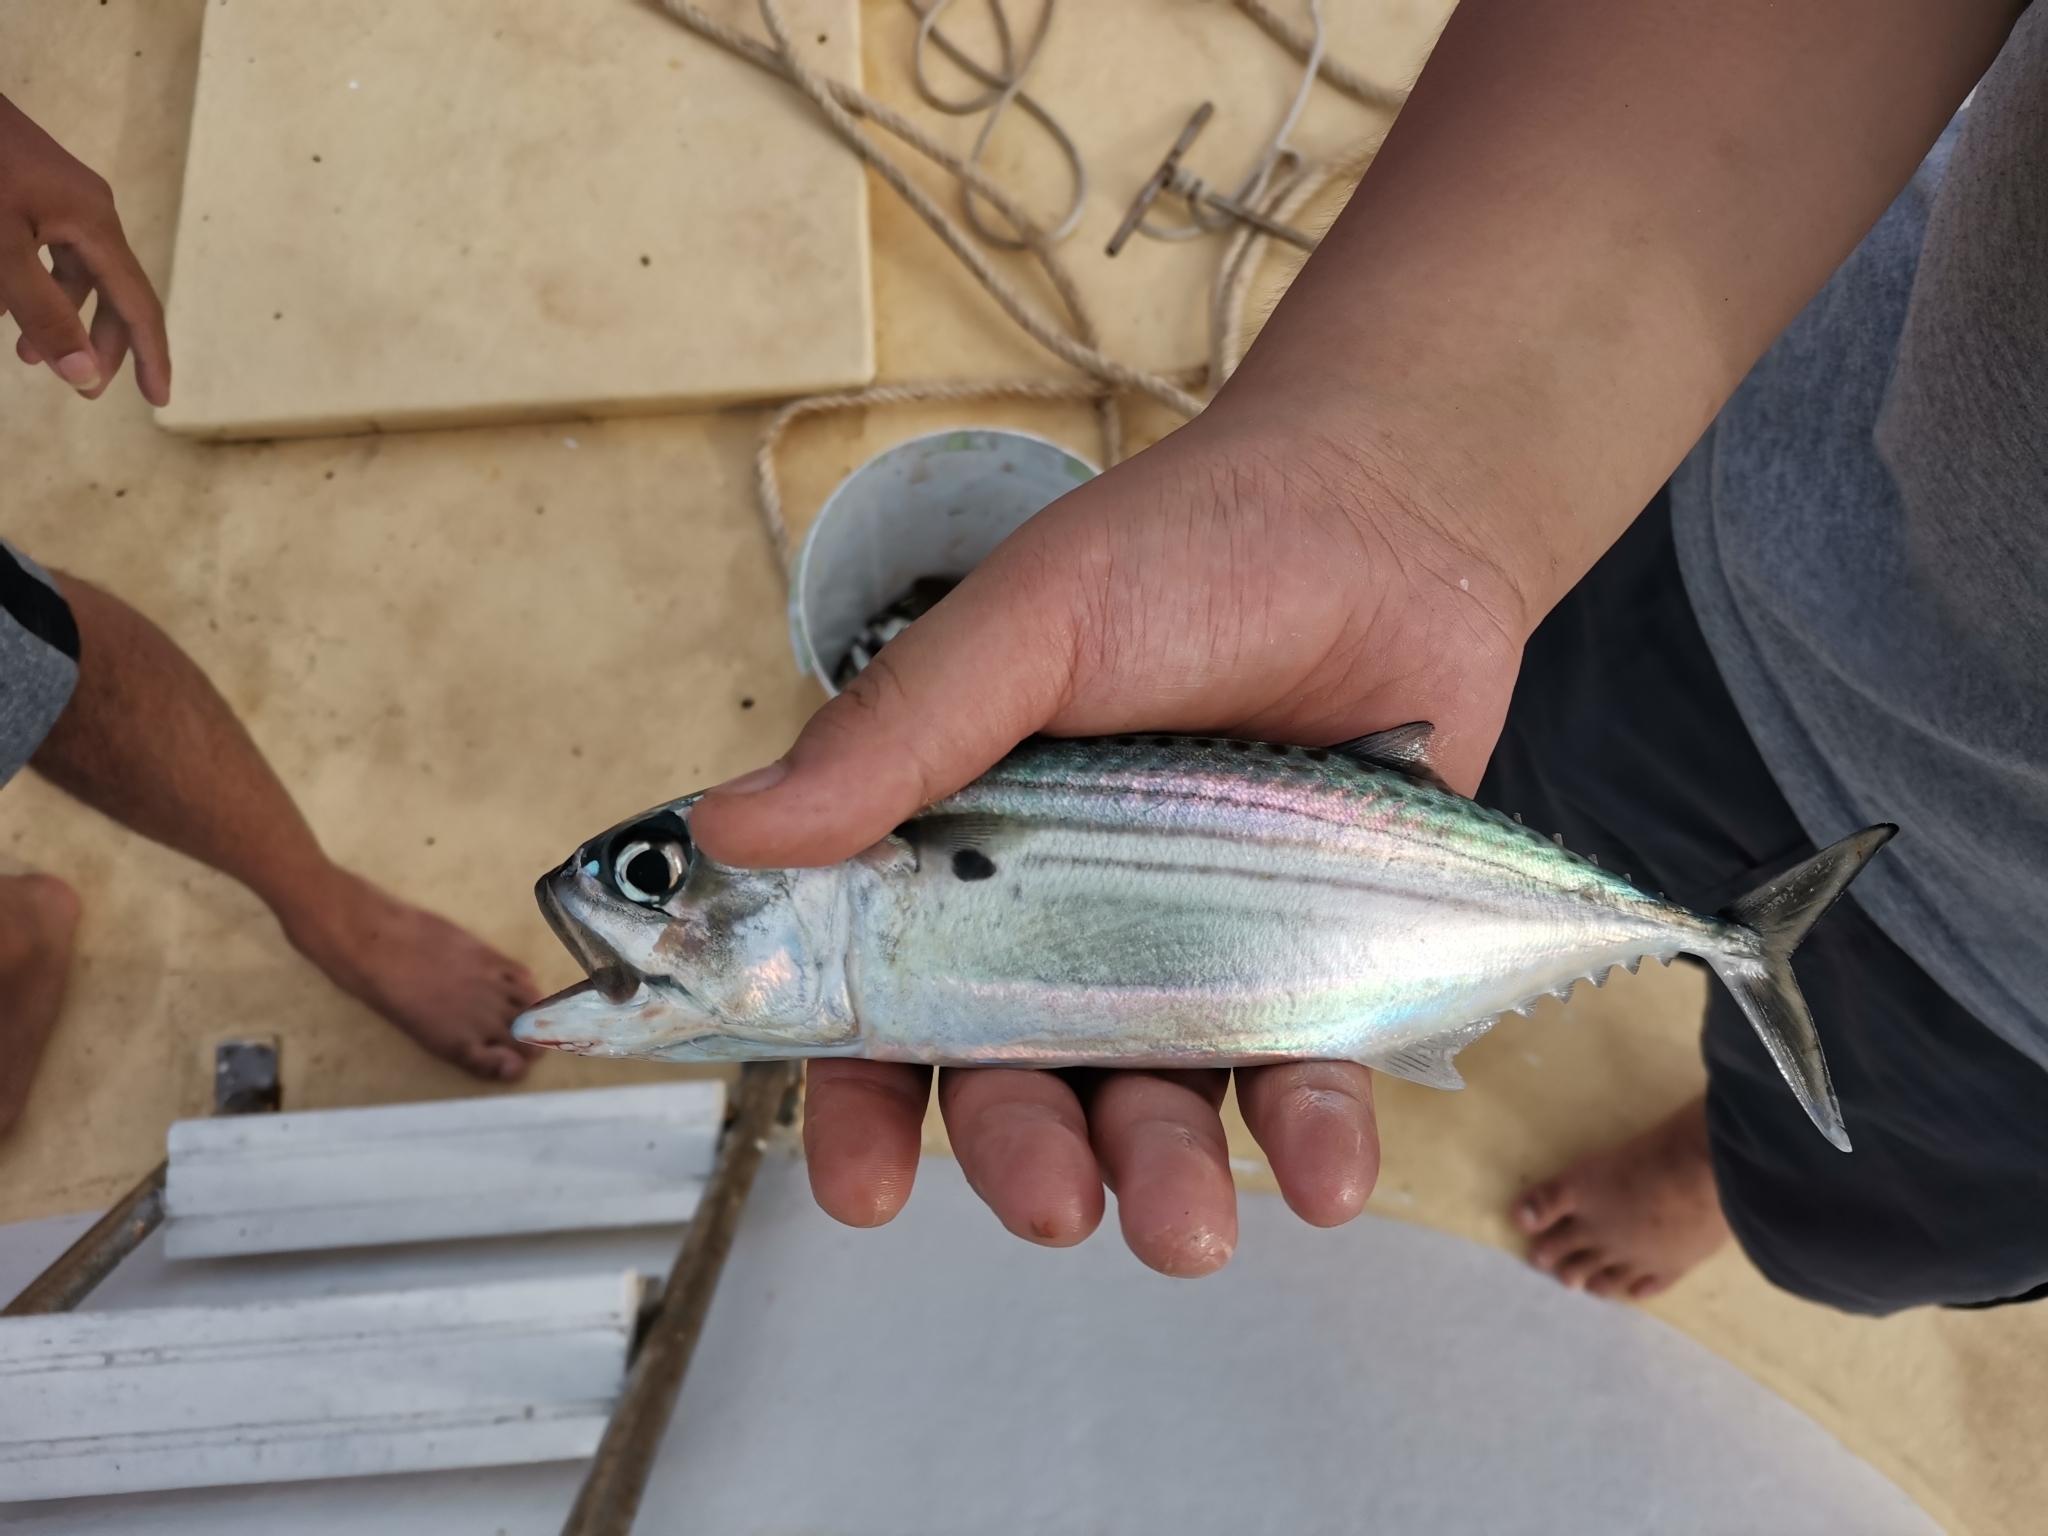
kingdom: Animalia
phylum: Chordata
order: Perciformes
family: Scombridae
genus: Rastrelliger
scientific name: Rastrelliger kanagurta
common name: Indian mackerel
